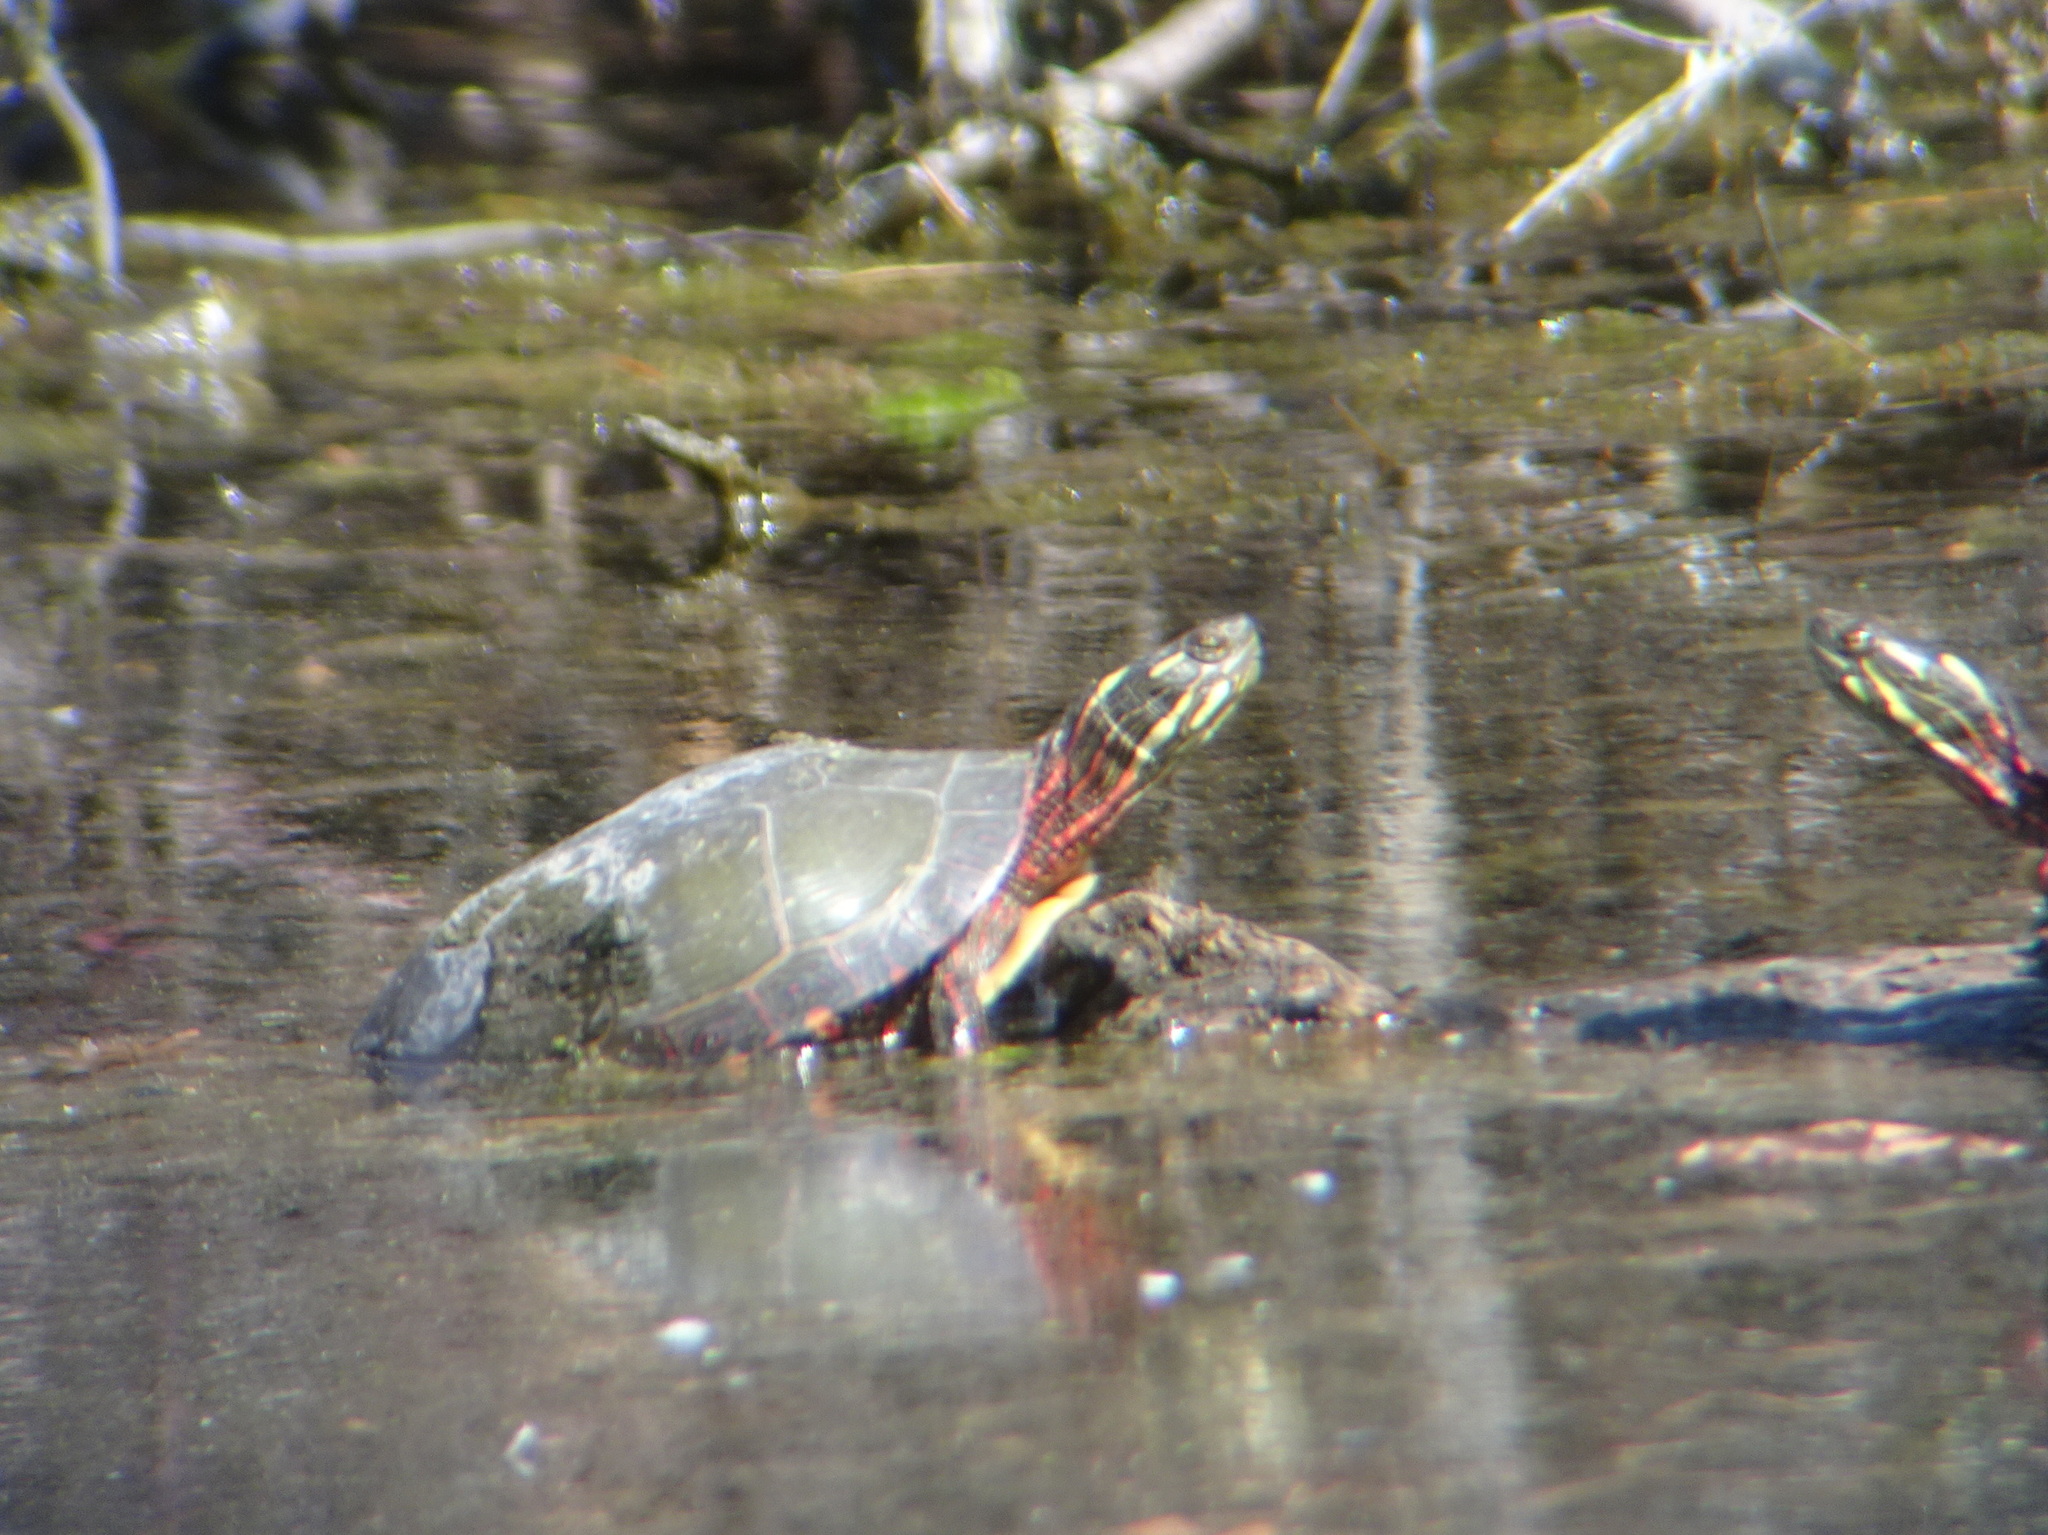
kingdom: Animalia
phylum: Chordata
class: Testudines
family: Emydidae
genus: Chrysemys
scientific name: Chrysemys picta
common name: Painted turtle
